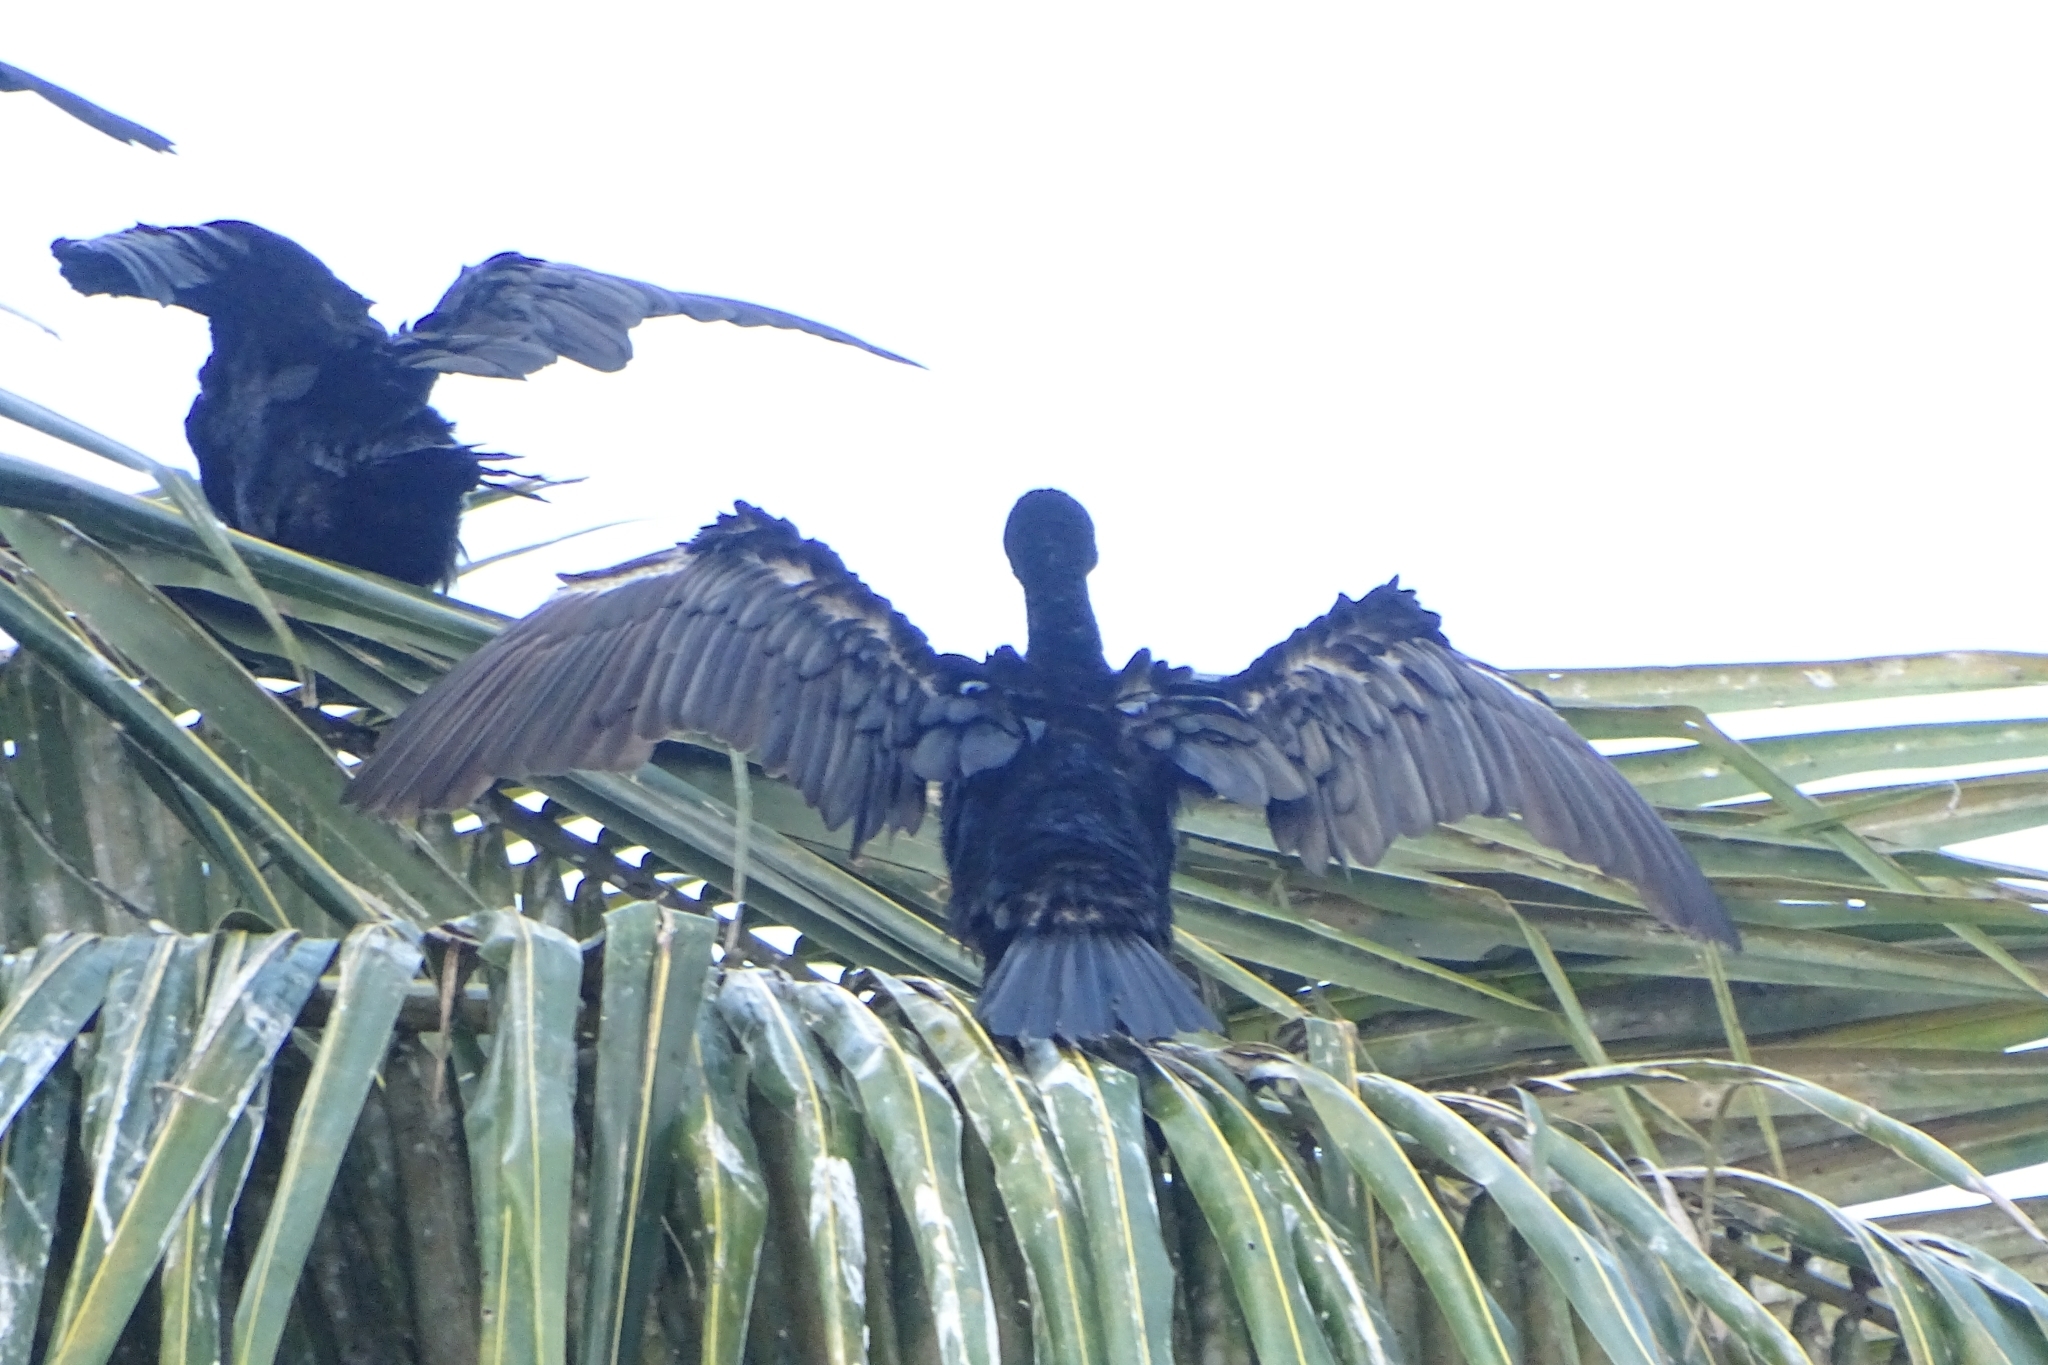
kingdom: Animalia
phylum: Chordata
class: Aves
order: Suliformes
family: Phalacrocoracidae
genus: Phalacrocorax
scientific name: Phalacrocorax fuscicollis
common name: Indian cormorant
